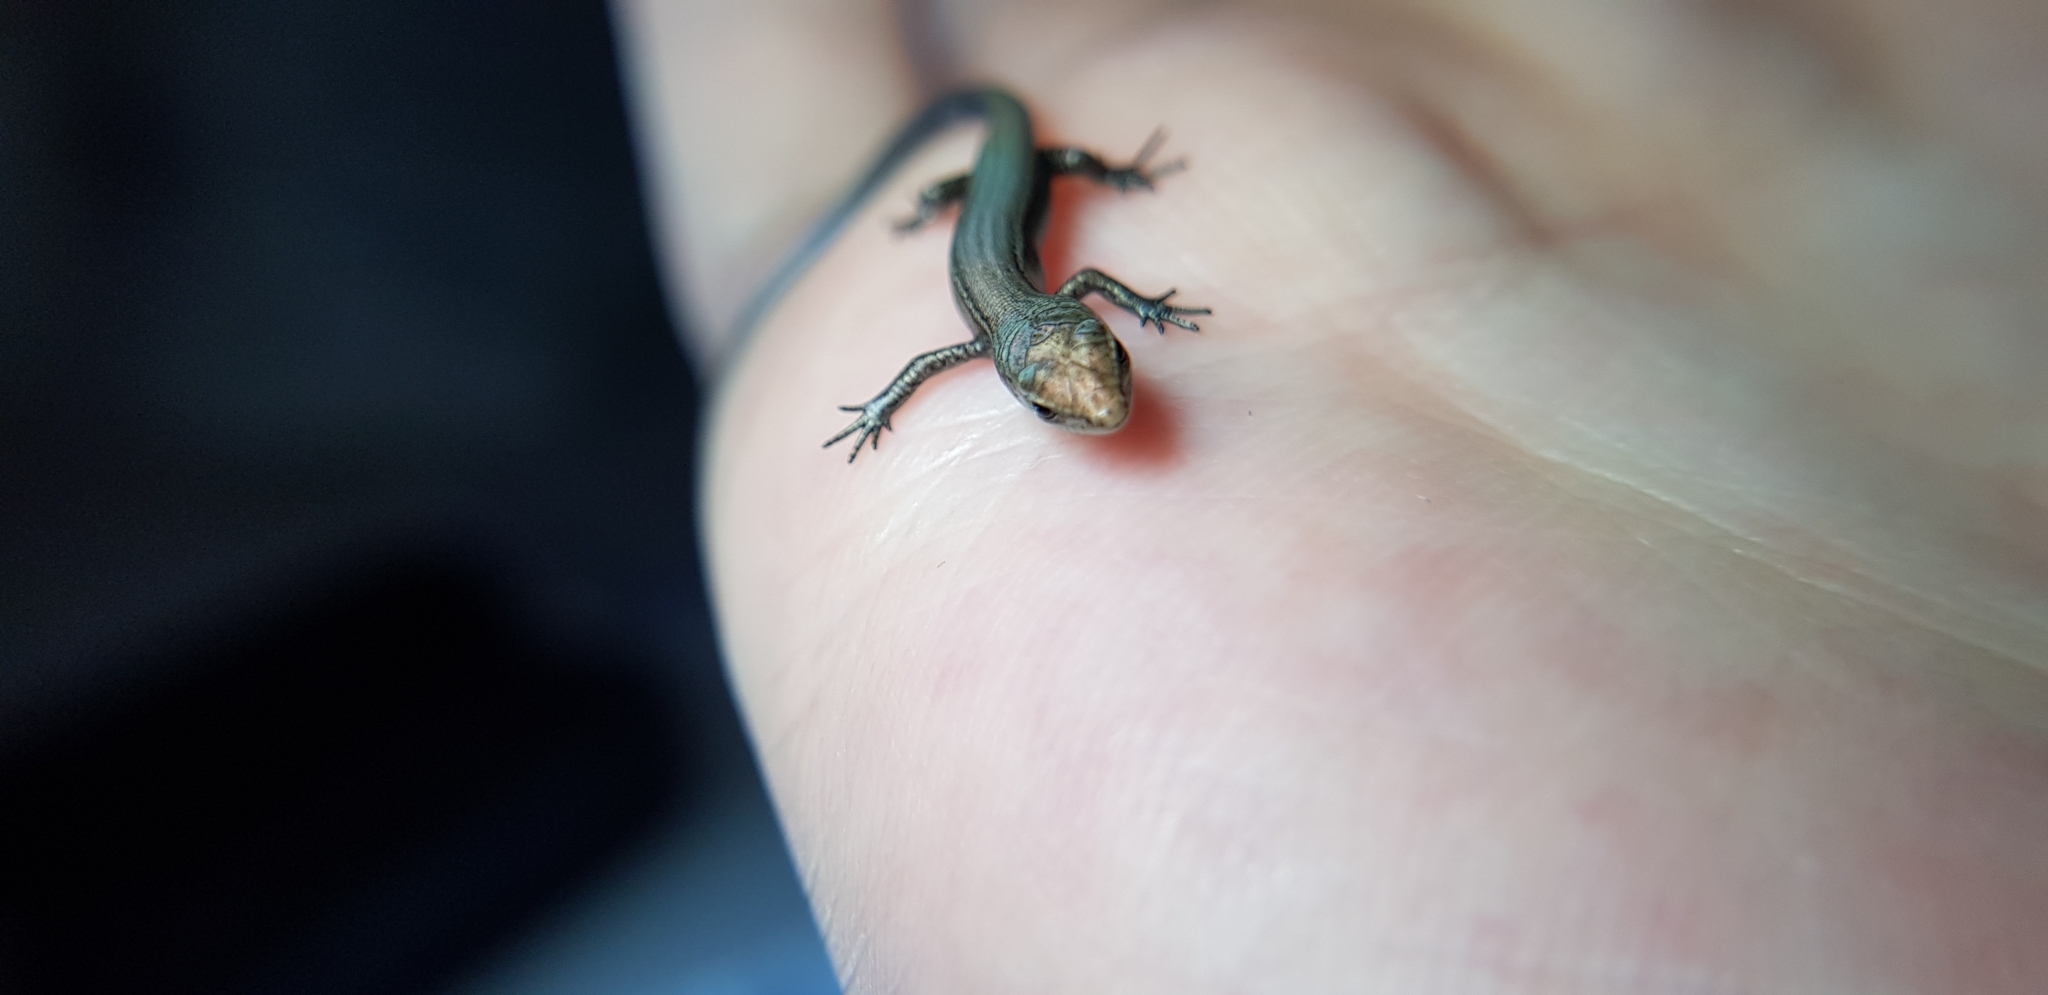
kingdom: Animalia
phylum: Chordata
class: Squamata
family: Scincidae
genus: Lampropholis
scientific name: Lampropholis delicata
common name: Plague skink
